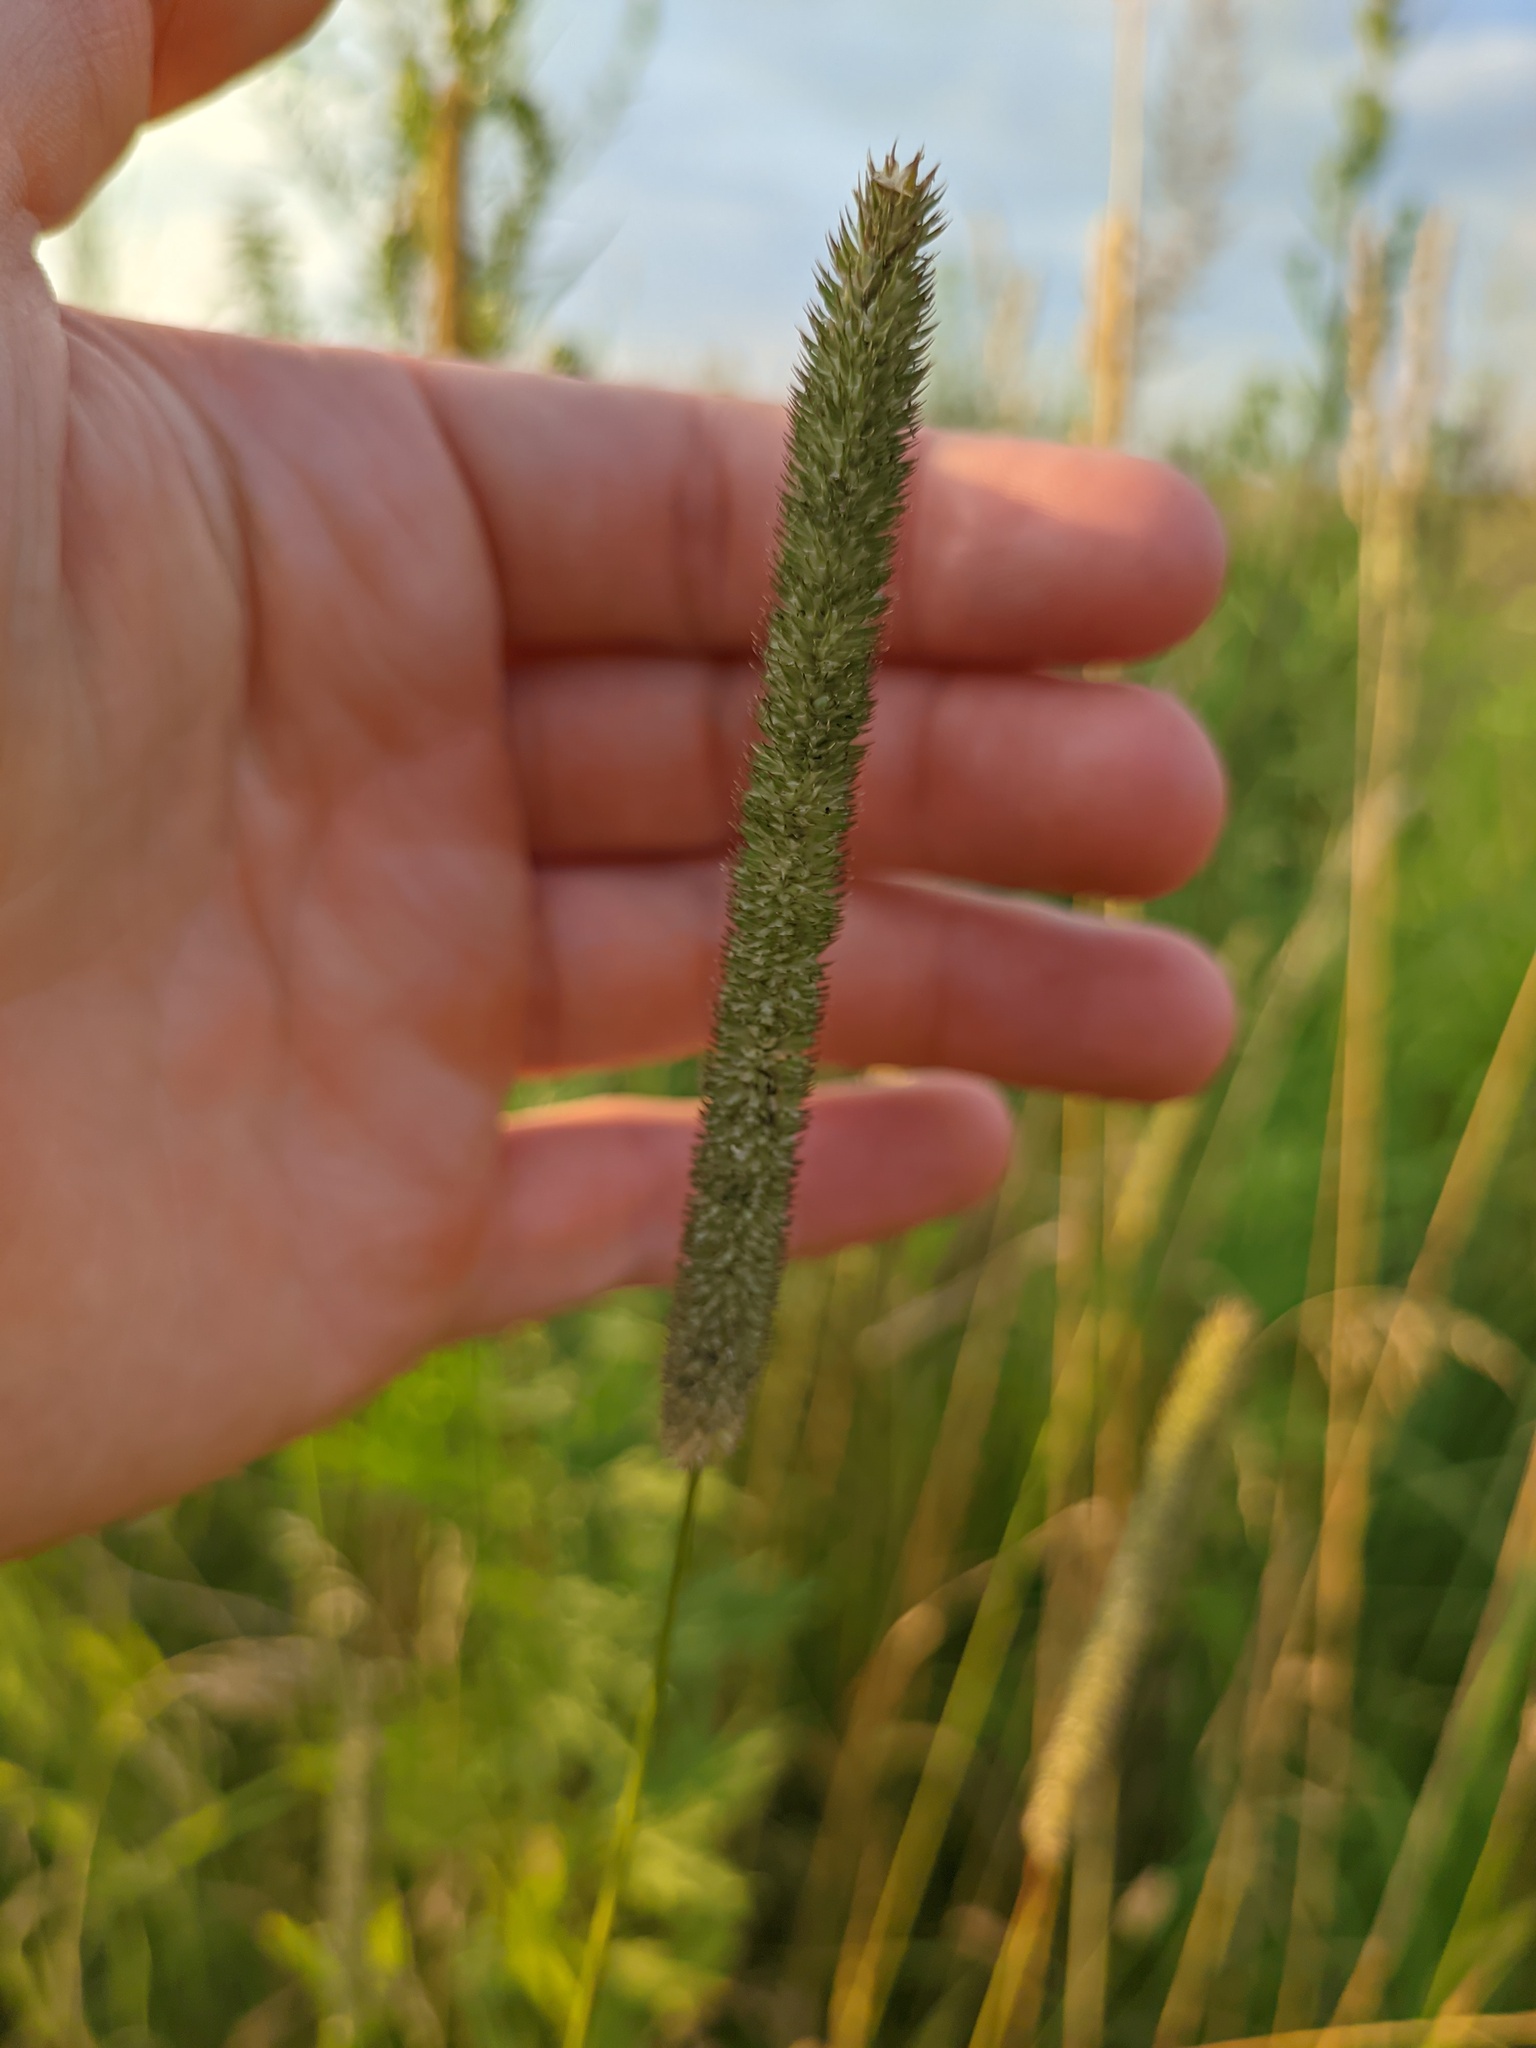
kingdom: Plantae
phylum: Tracheophyta
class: Liliopsida
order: Poales
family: Poaceae
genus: Phleum
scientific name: Phleum pratense
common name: Timothy grass
